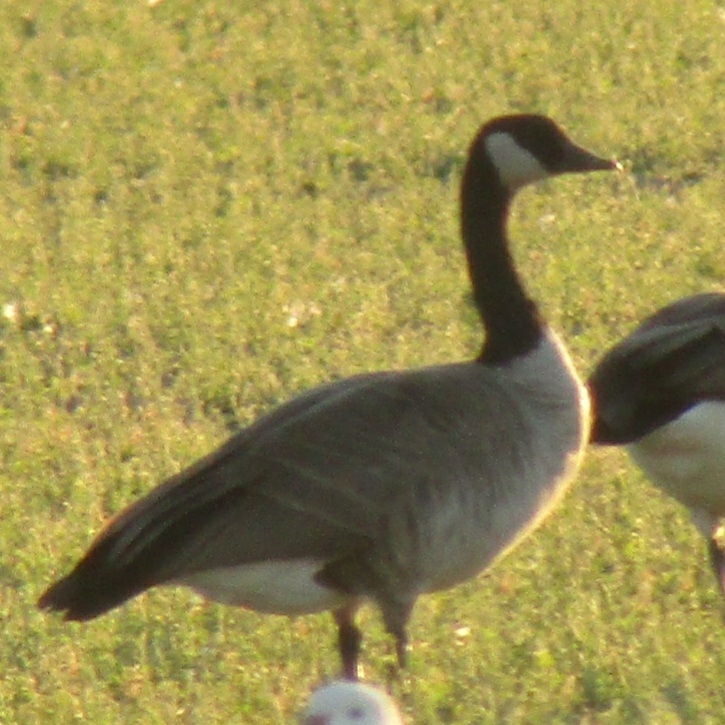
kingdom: Animalia
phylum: Chordata
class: Aves
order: Anseriformes
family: Anatidae
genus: Branta
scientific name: Branta canadensis
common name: Canada goose
